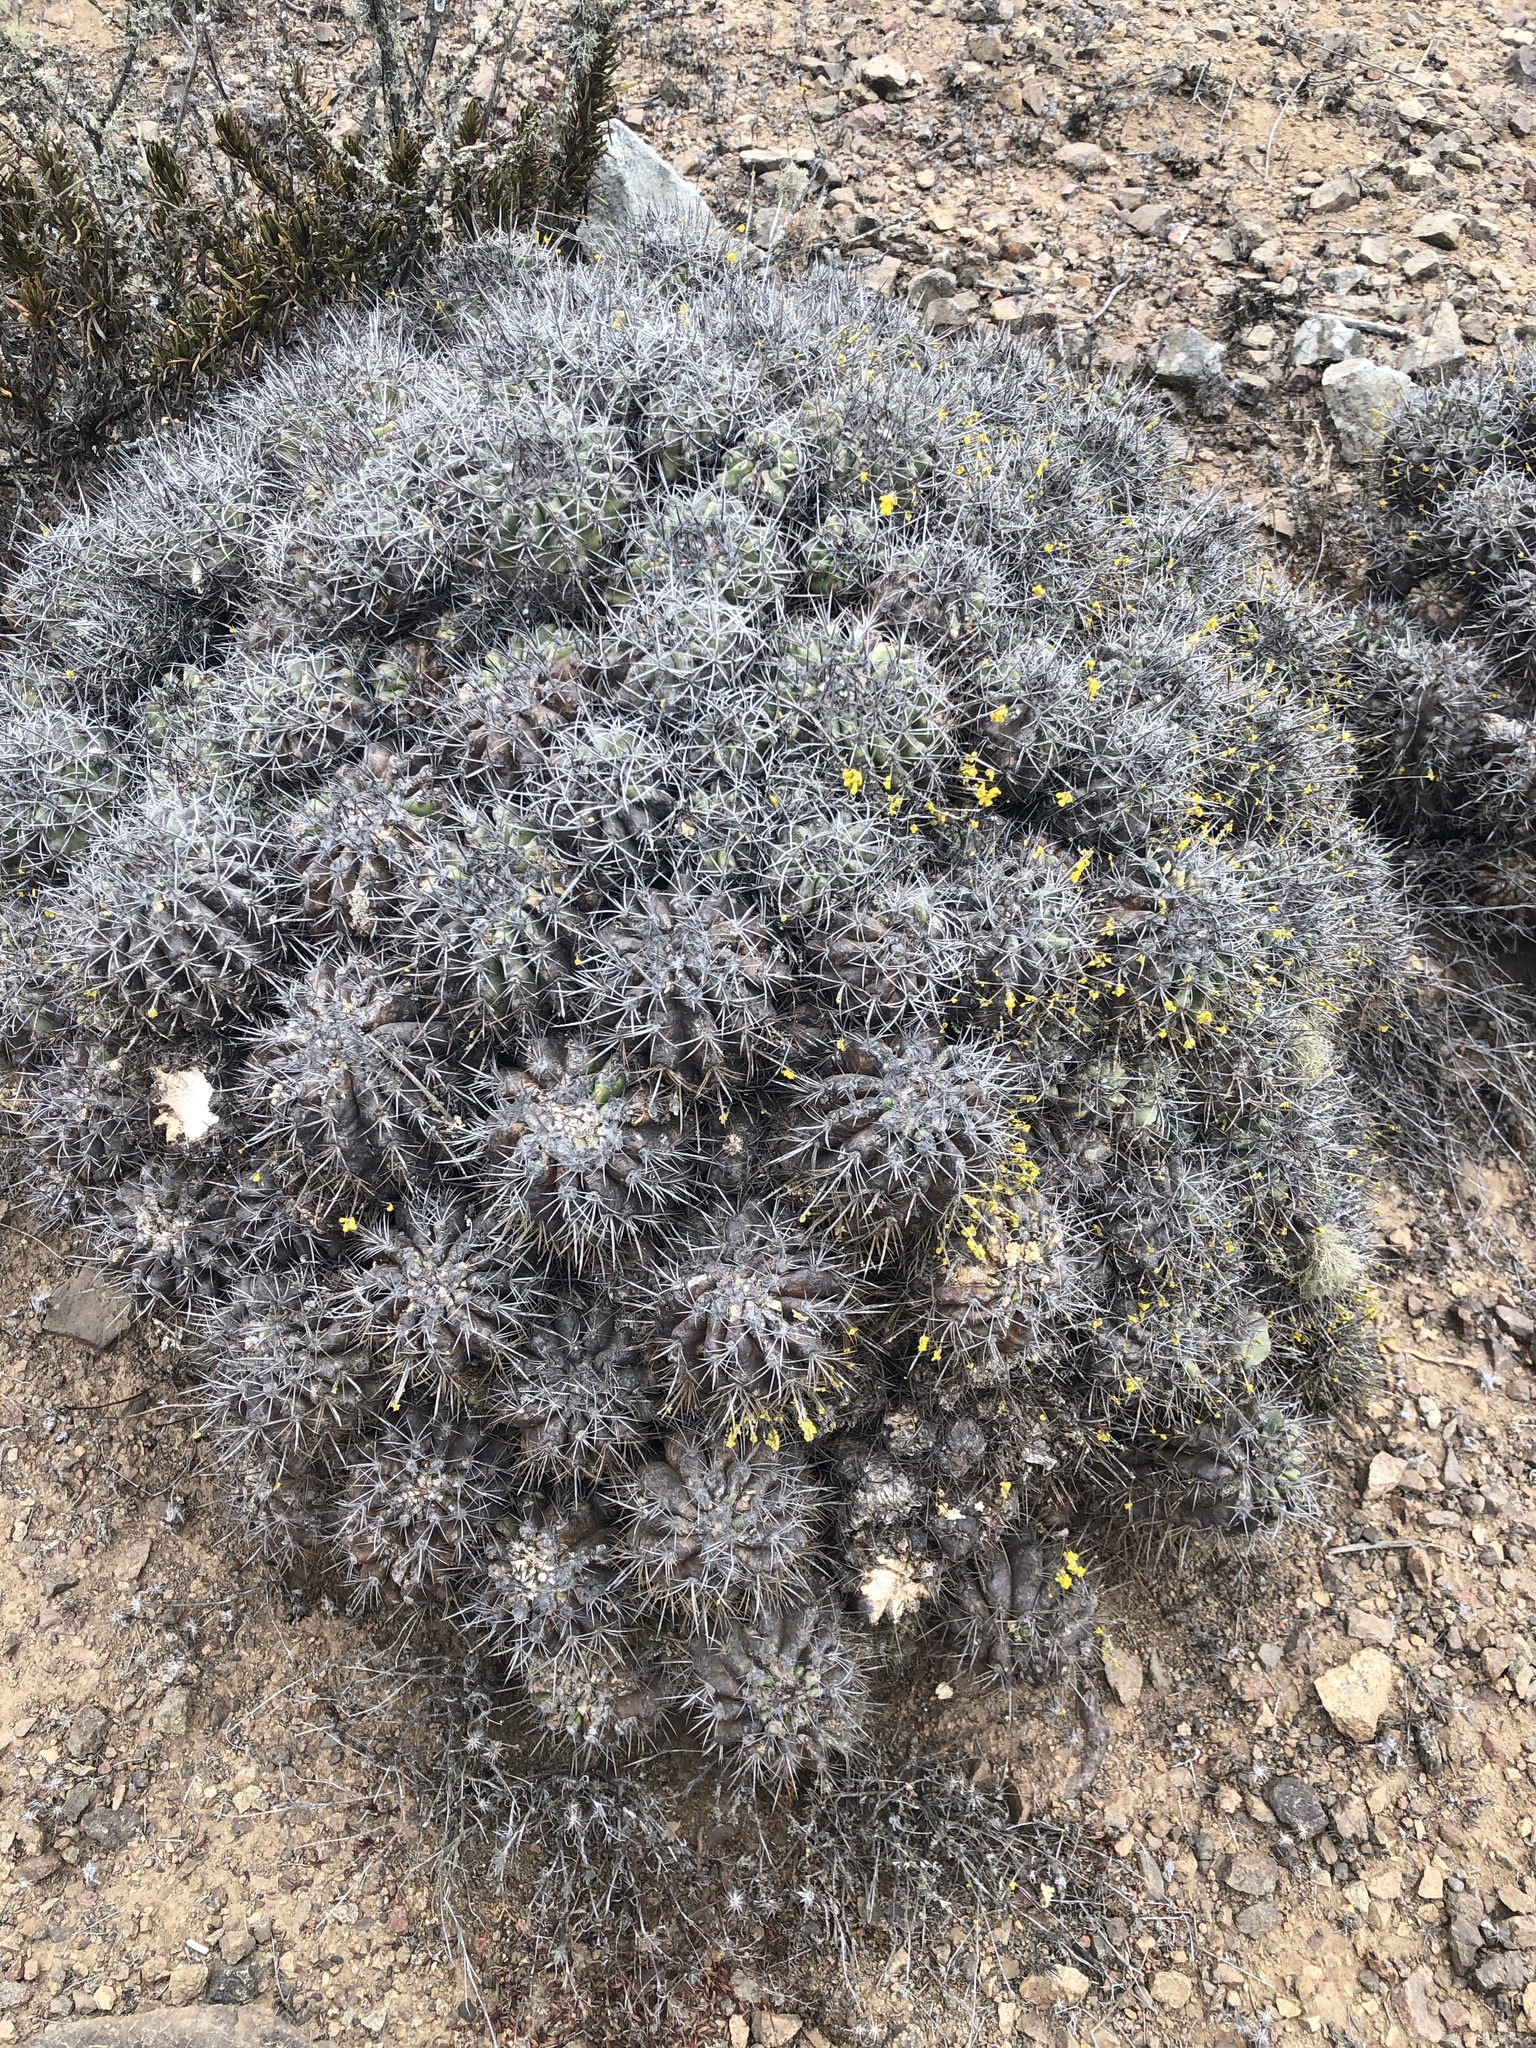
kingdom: Plantae
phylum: Tracheophyta
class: Magnoliopsida
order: Caryophyllales
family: Cactaceae
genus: Copiapoa
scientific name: Copiapoa coquimbana
